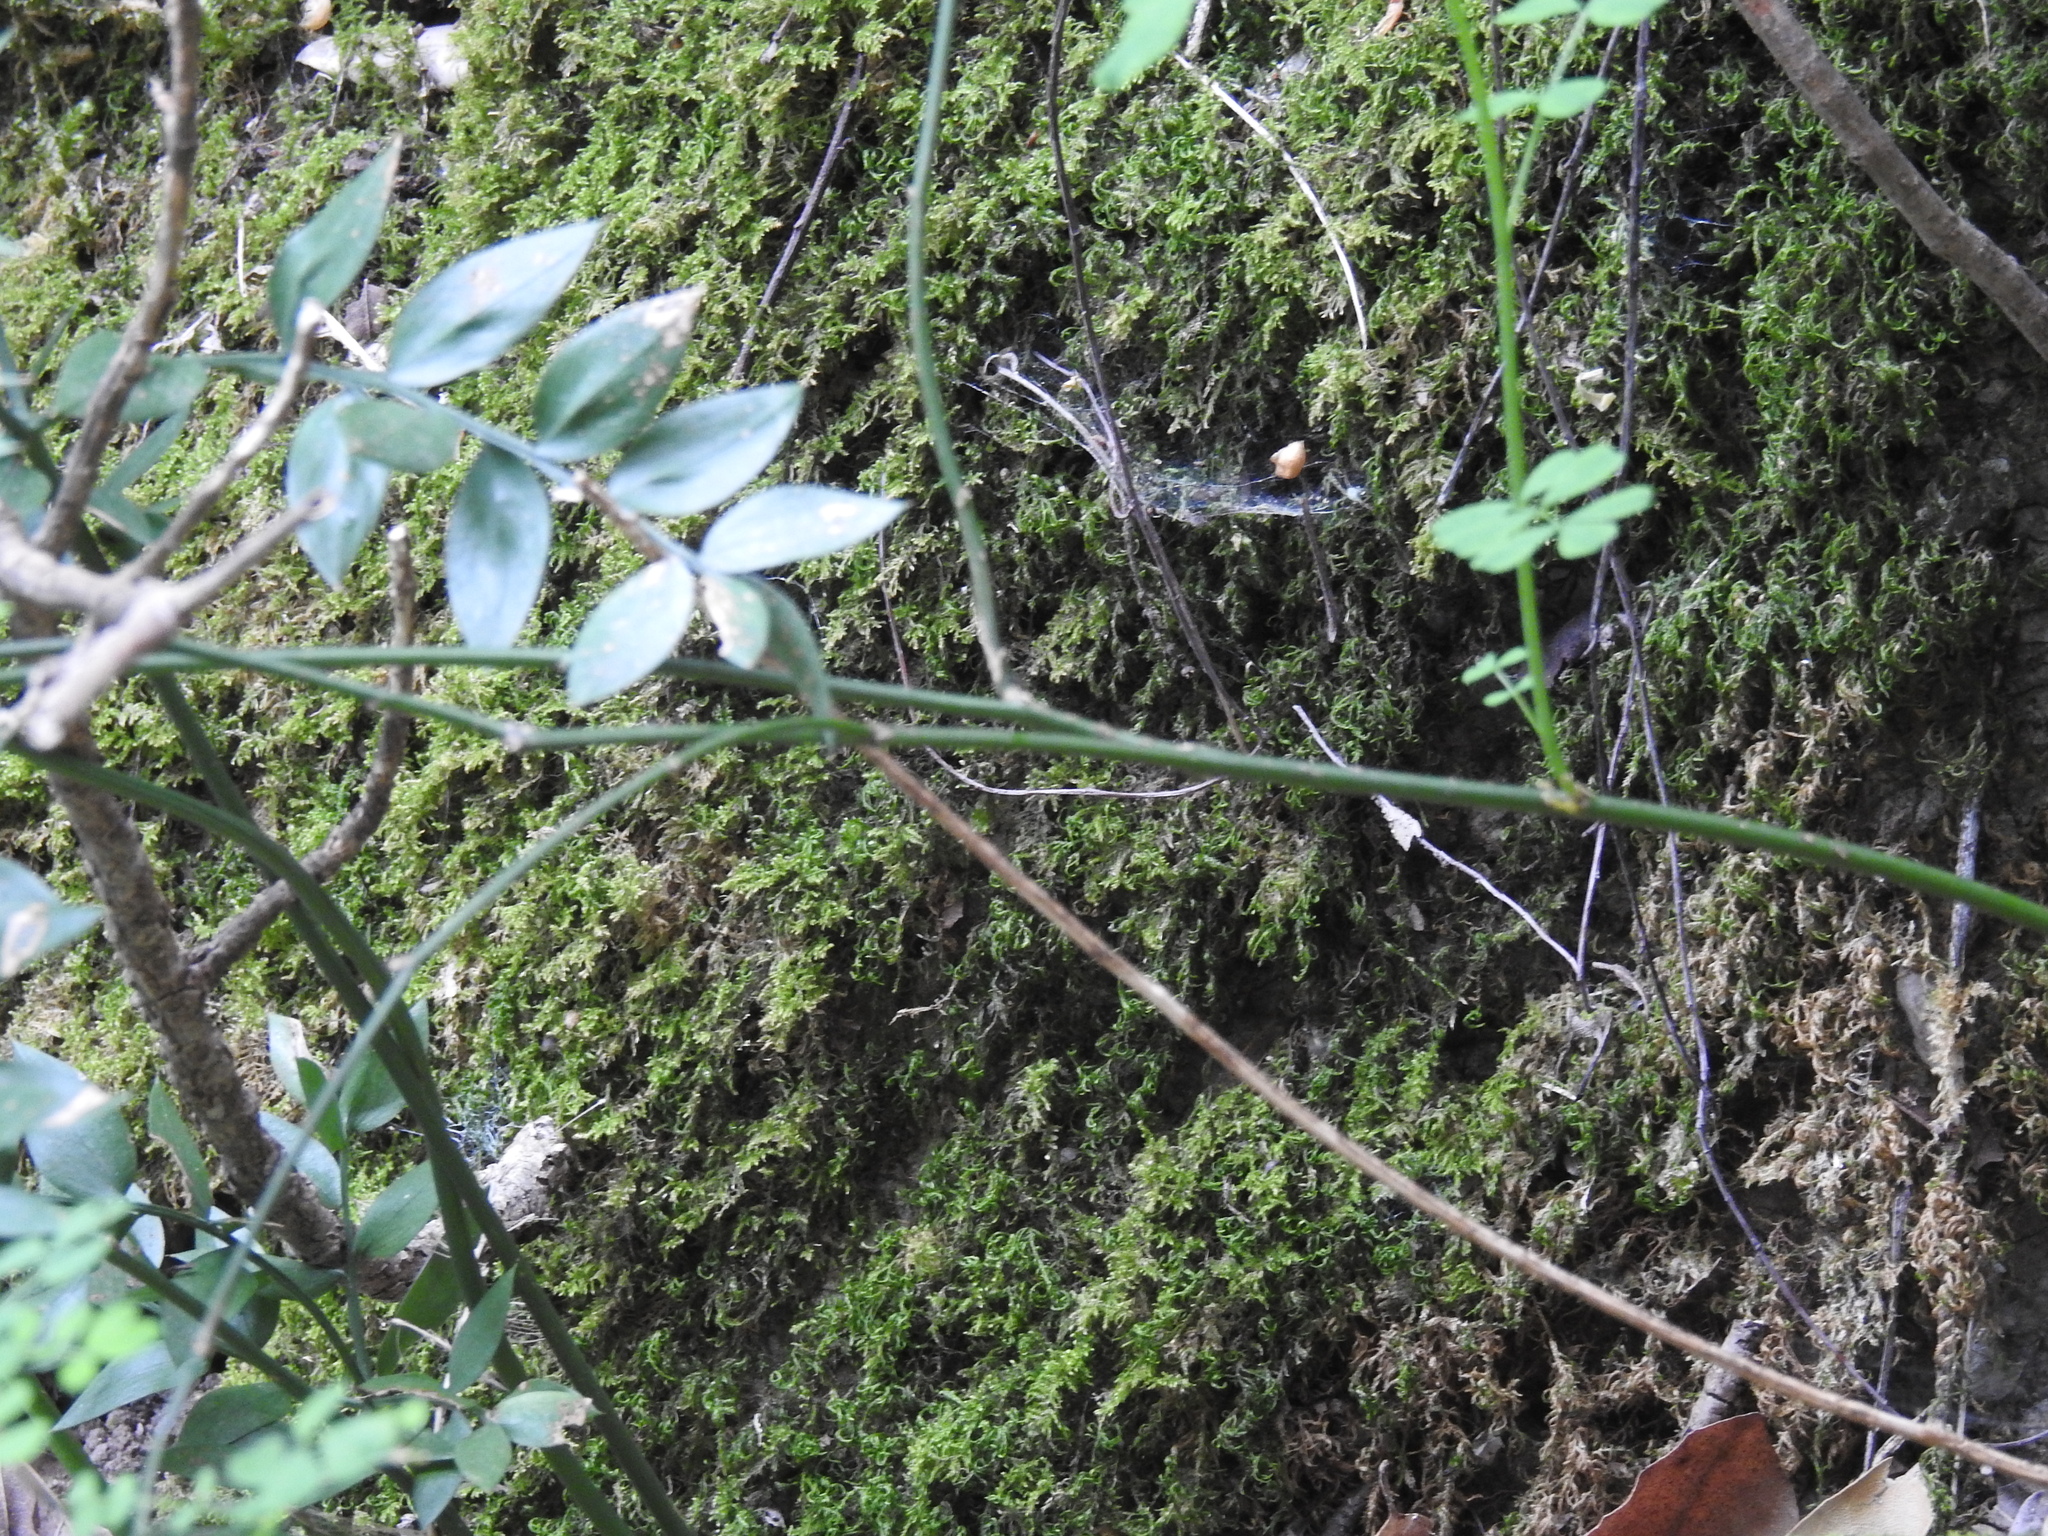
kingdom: Plantae
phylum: Tracheophyta
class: Magnoliopsida
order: Fabales
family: Fabaceae
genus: Hippocrepis
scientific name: Hippocrepis emerus
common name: Scorpion senna
